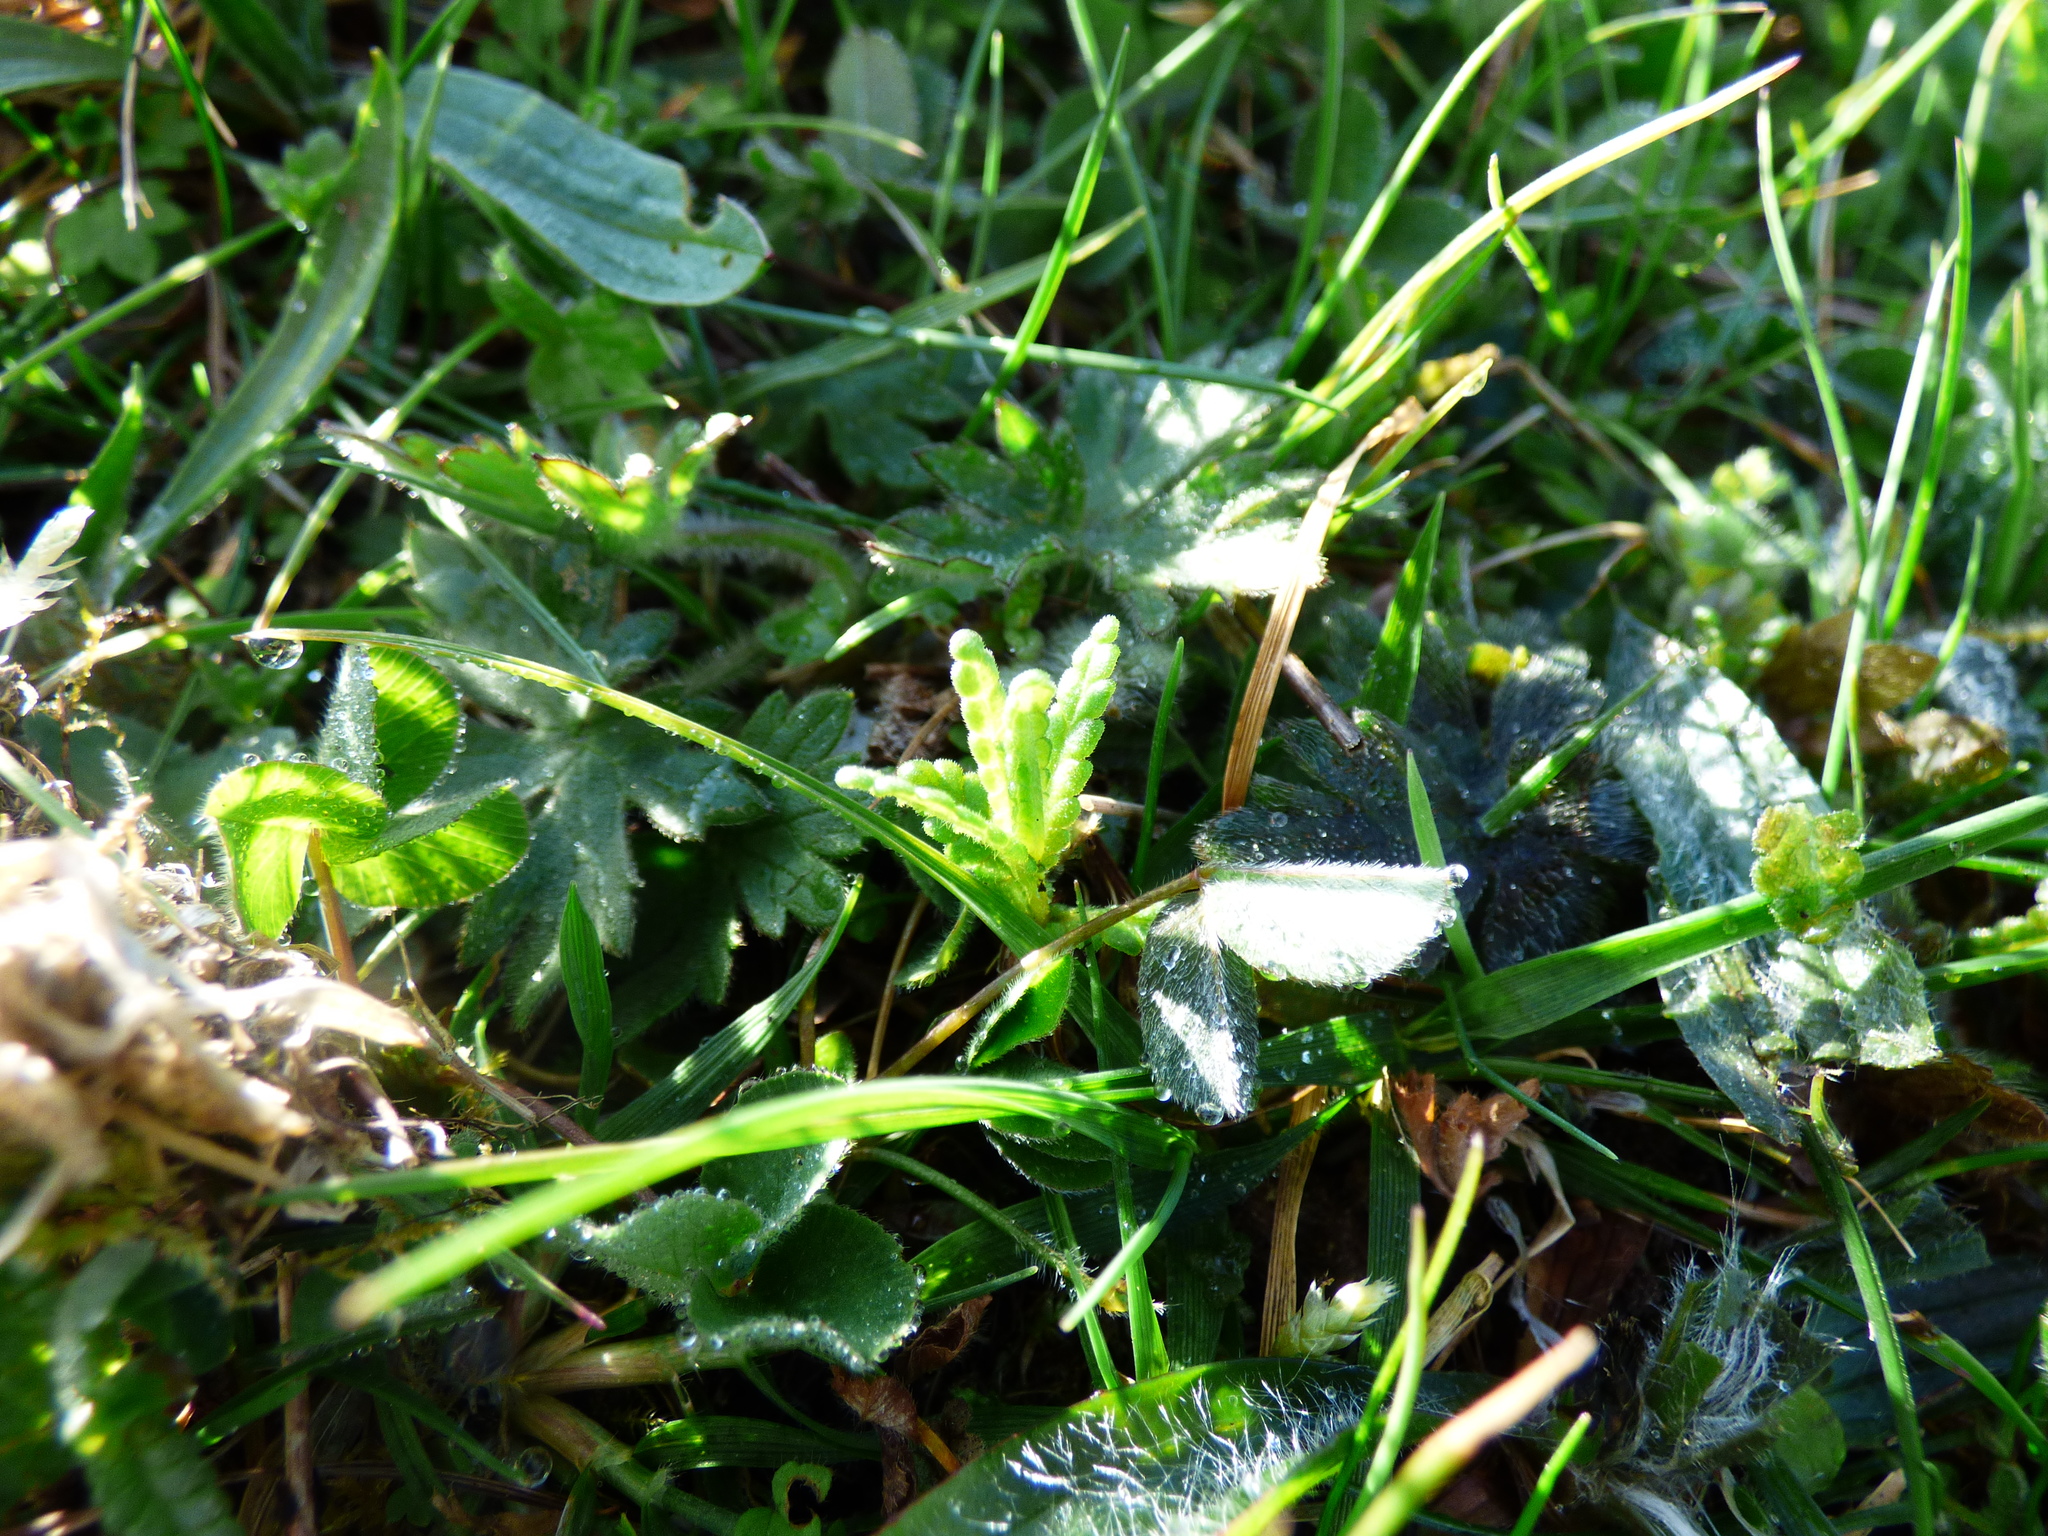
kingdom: Plantae
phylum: Tracheophyta
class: Magnoliopsida
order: Lamiales
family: Orobanchaceae
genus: Rhinanthus
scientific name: Rhinanthus minor
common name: Yellow-rattle
